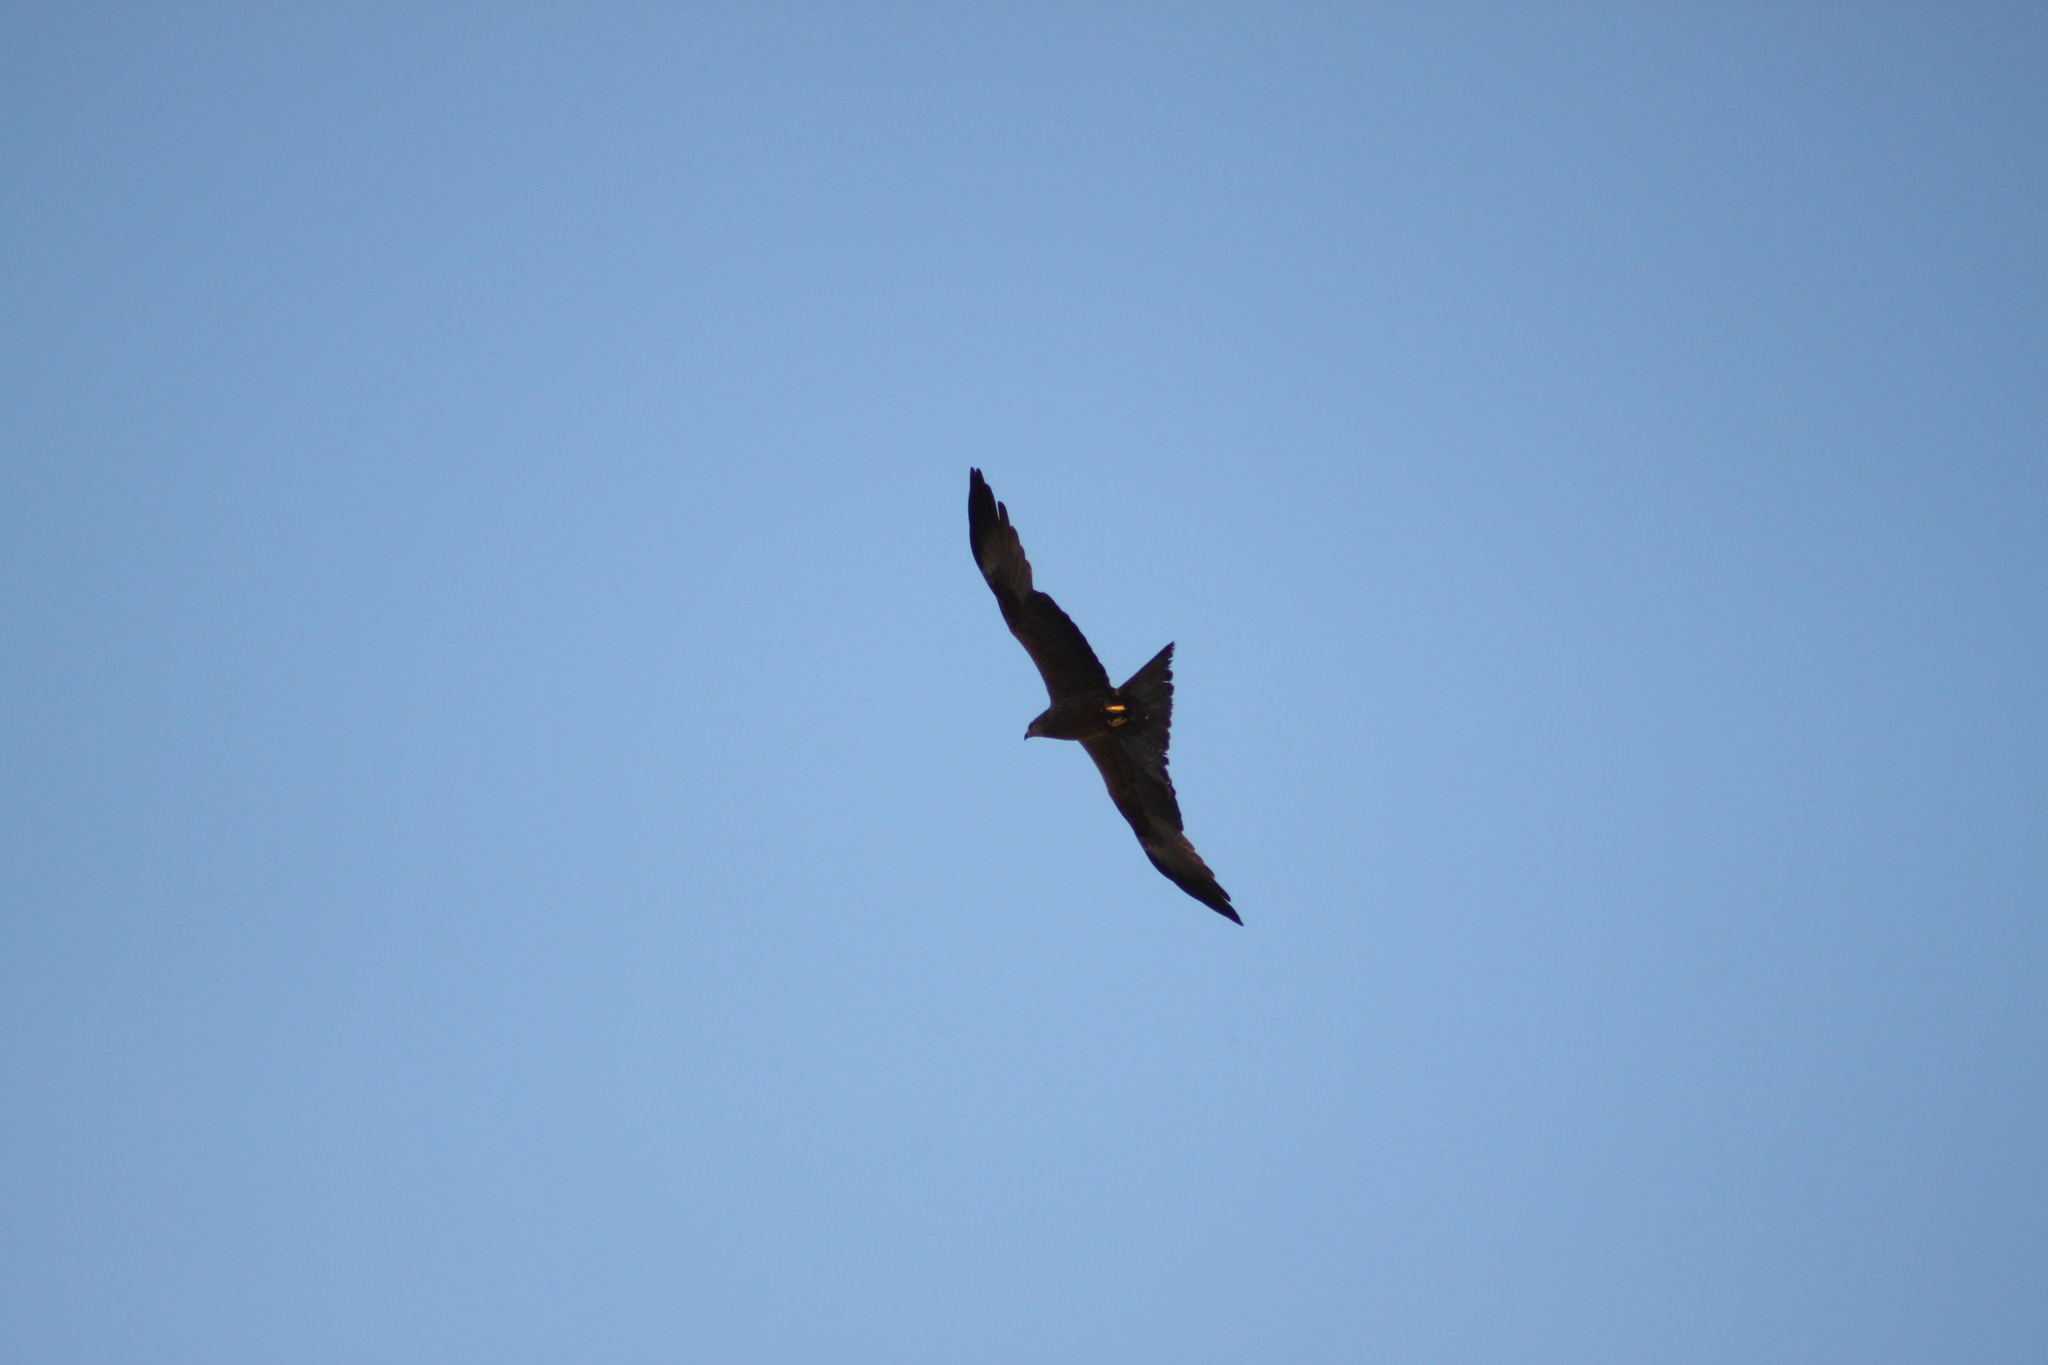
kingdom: Animalia
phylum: Chordata
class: Aves
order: Accipitriformes
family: Accipitridae
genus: Milvus
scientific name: Milvus milvus
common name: Red kite
